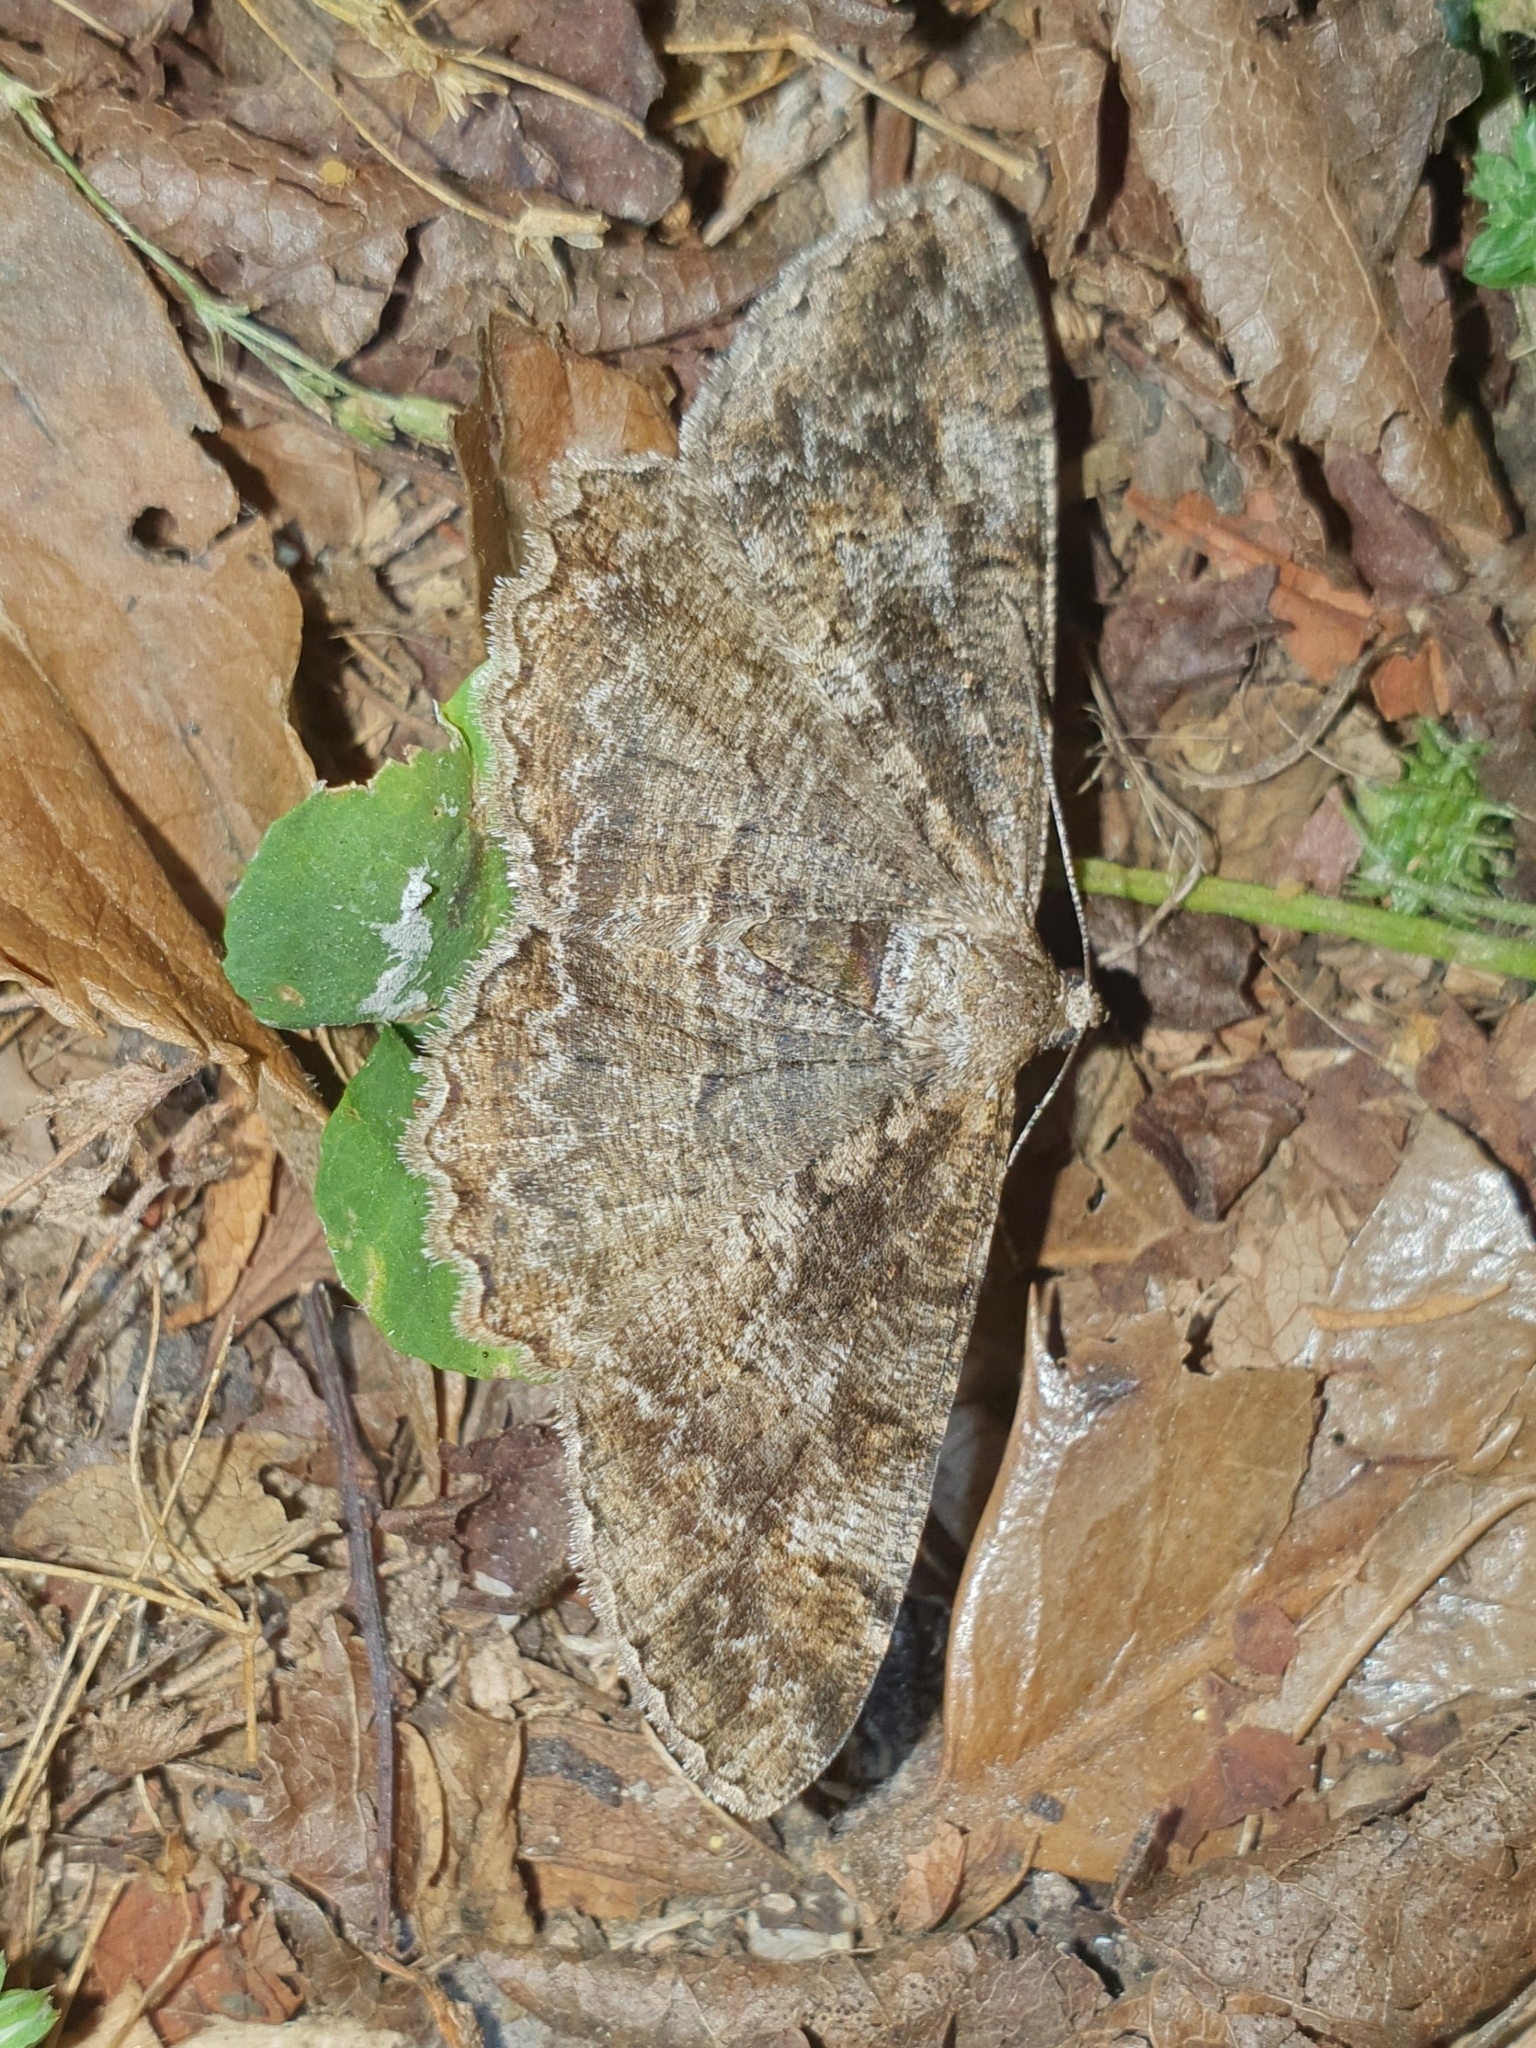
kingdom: Animalia
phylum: Arthropoda
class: Insecta
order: Lepidoptera
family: Geometridae
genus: Alcis
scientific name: Alcis repandata
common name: Mottled beauty
